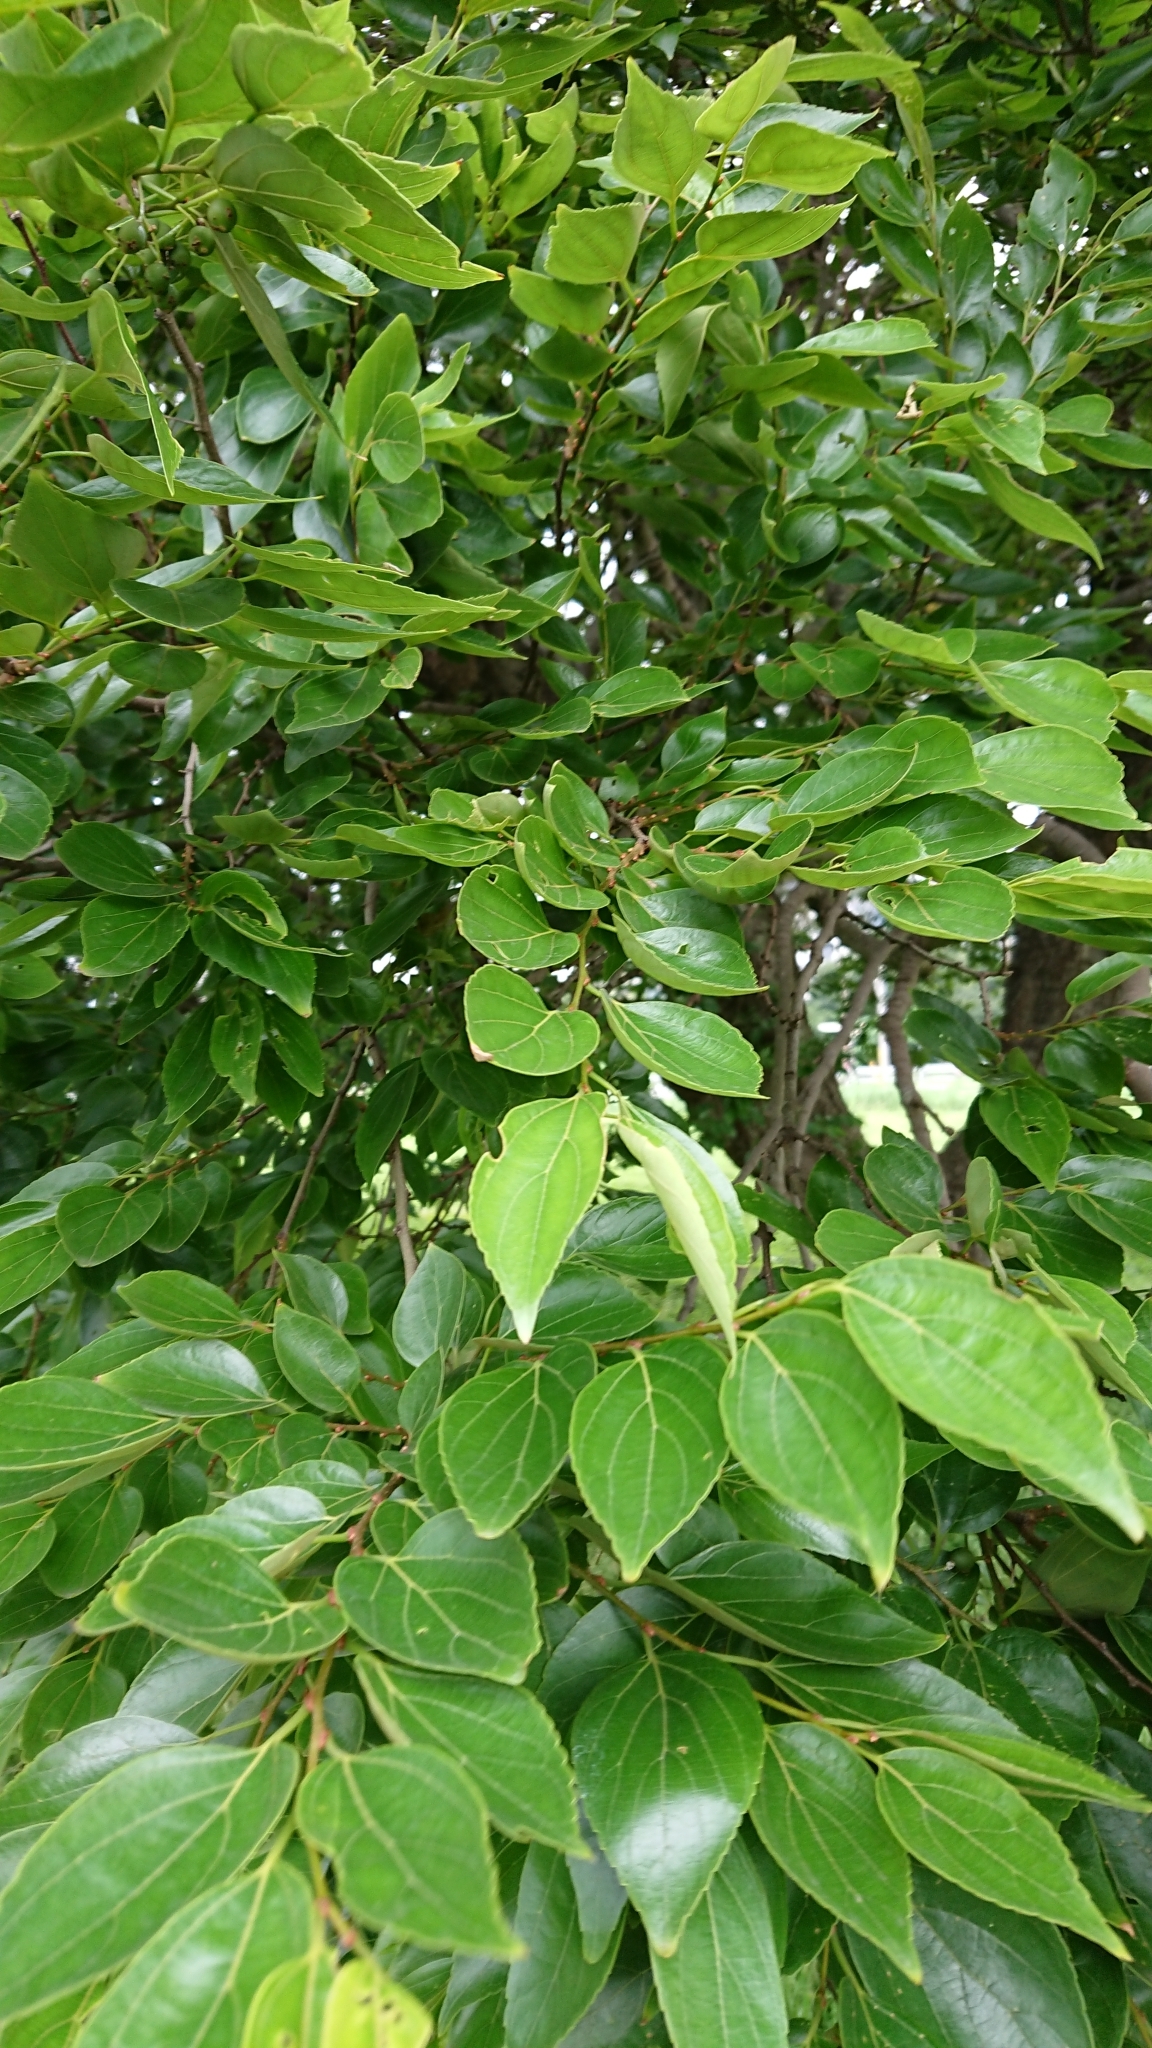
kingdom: Plantae
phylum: Tracheophyta
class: Magnoliopsida
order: Rosales
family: Cannabaceae
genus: Celtis
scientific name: Celtis sinensis
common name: Chinese hackberry
